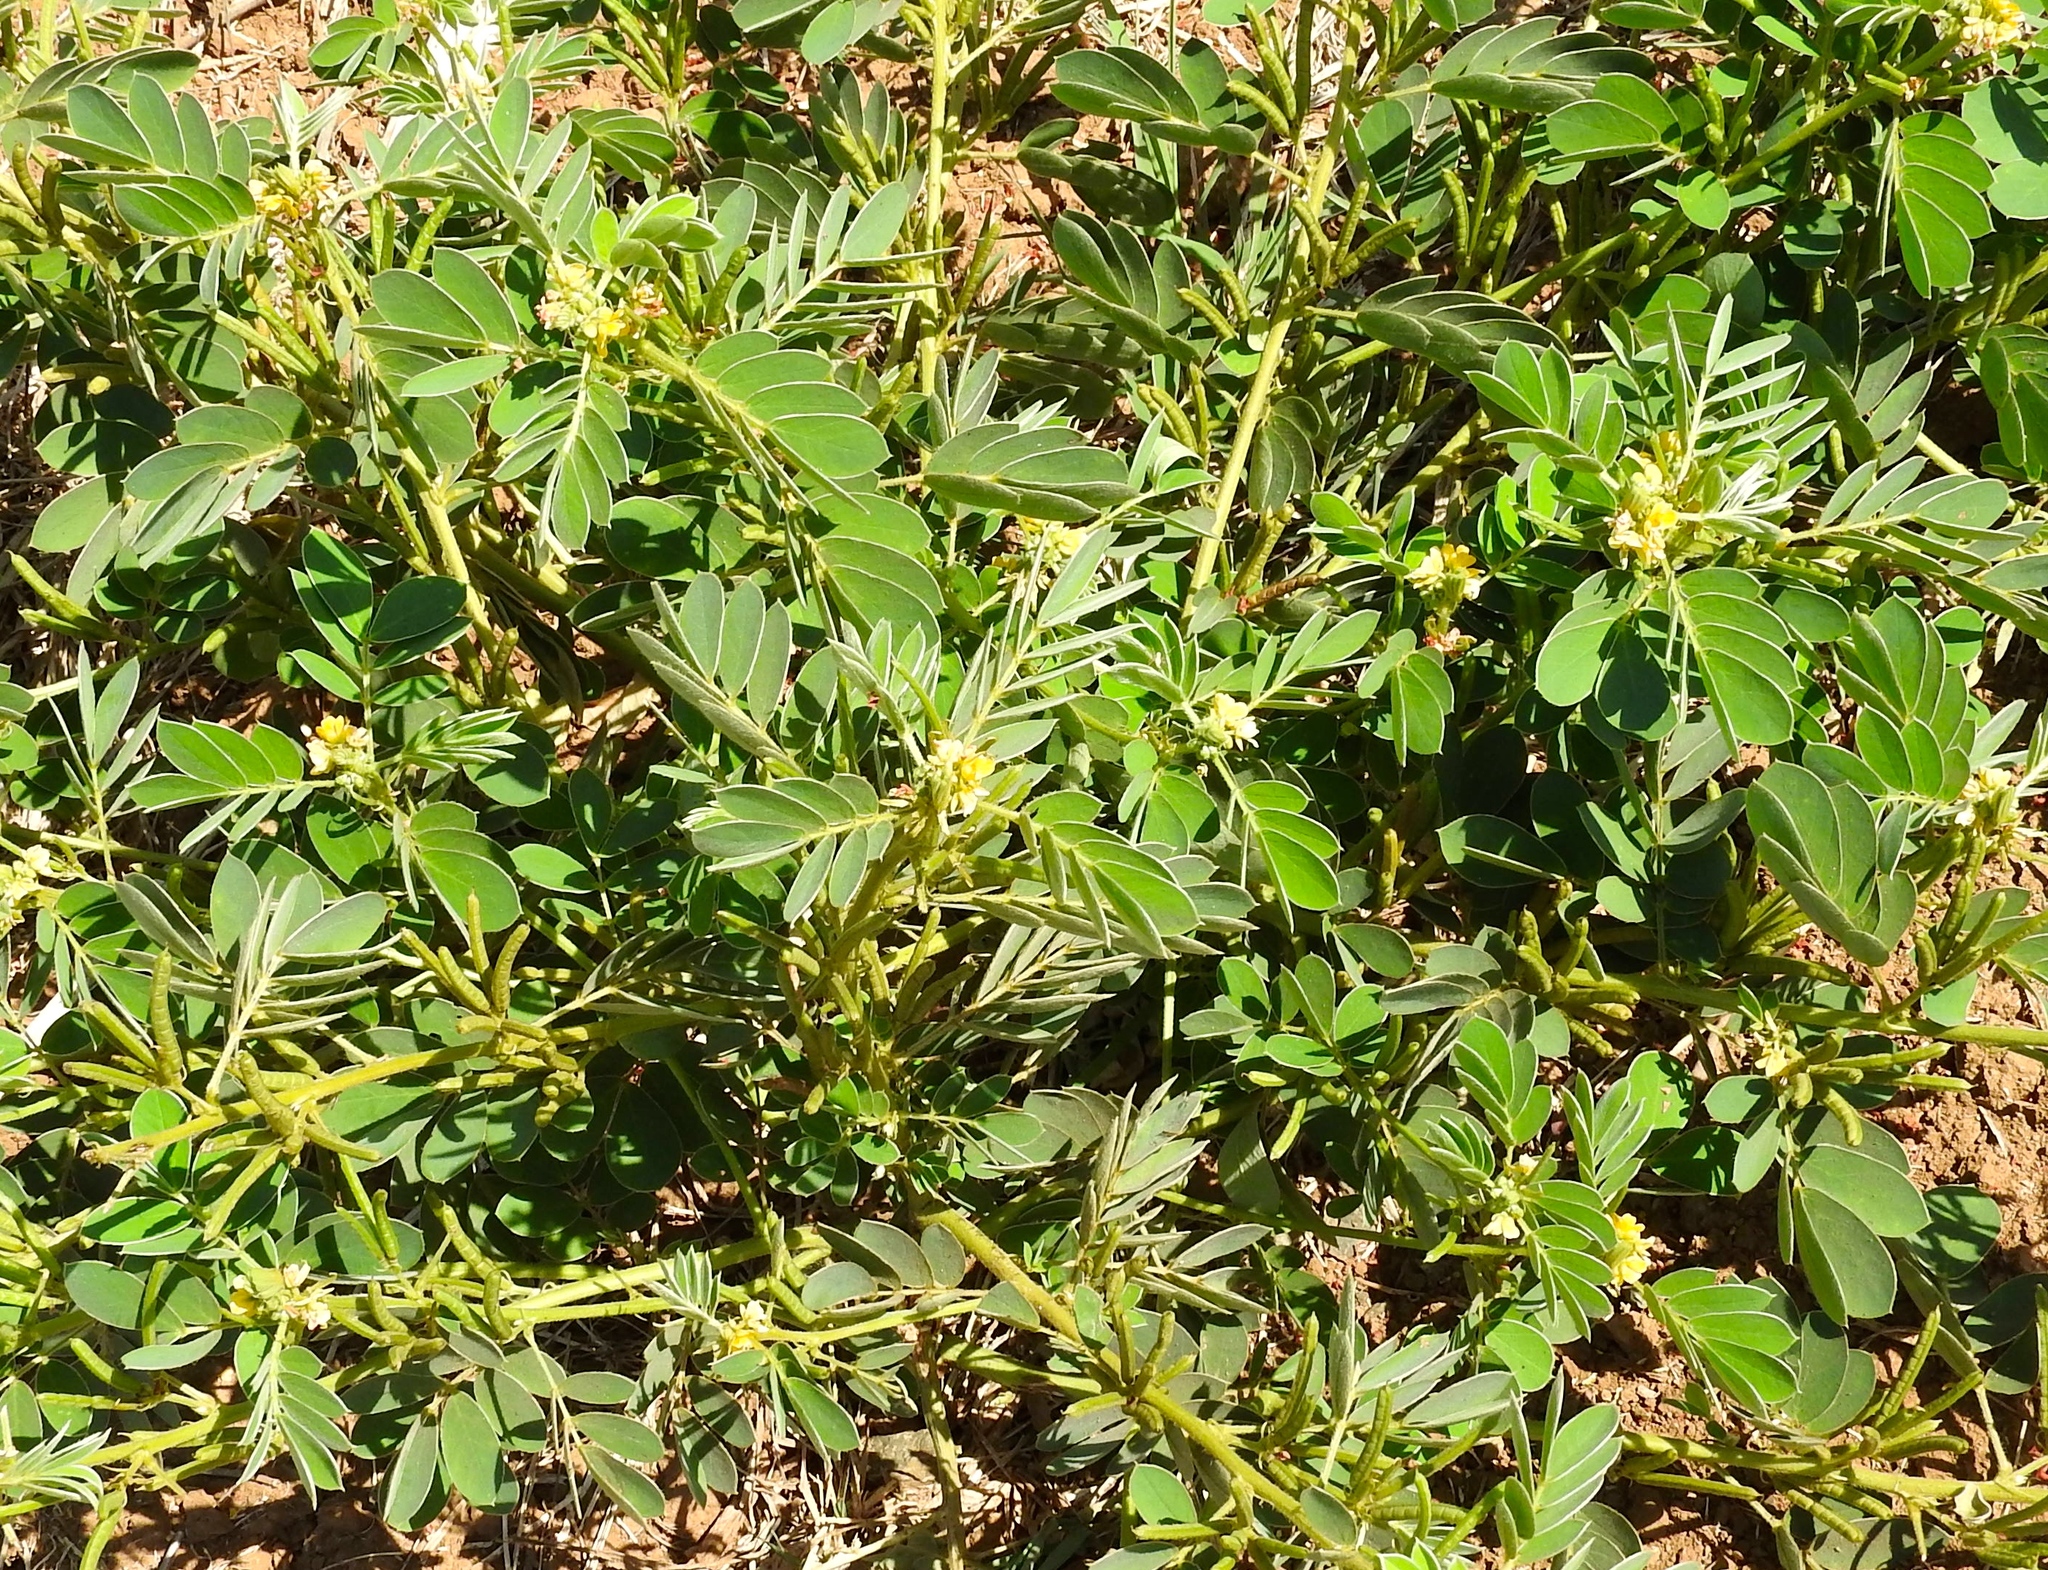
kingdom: Plantae
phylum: Tracheophyta
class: Magnoliopsida
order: Fabales
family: Fabaceae
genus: Senna
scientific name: Senna uniflora
